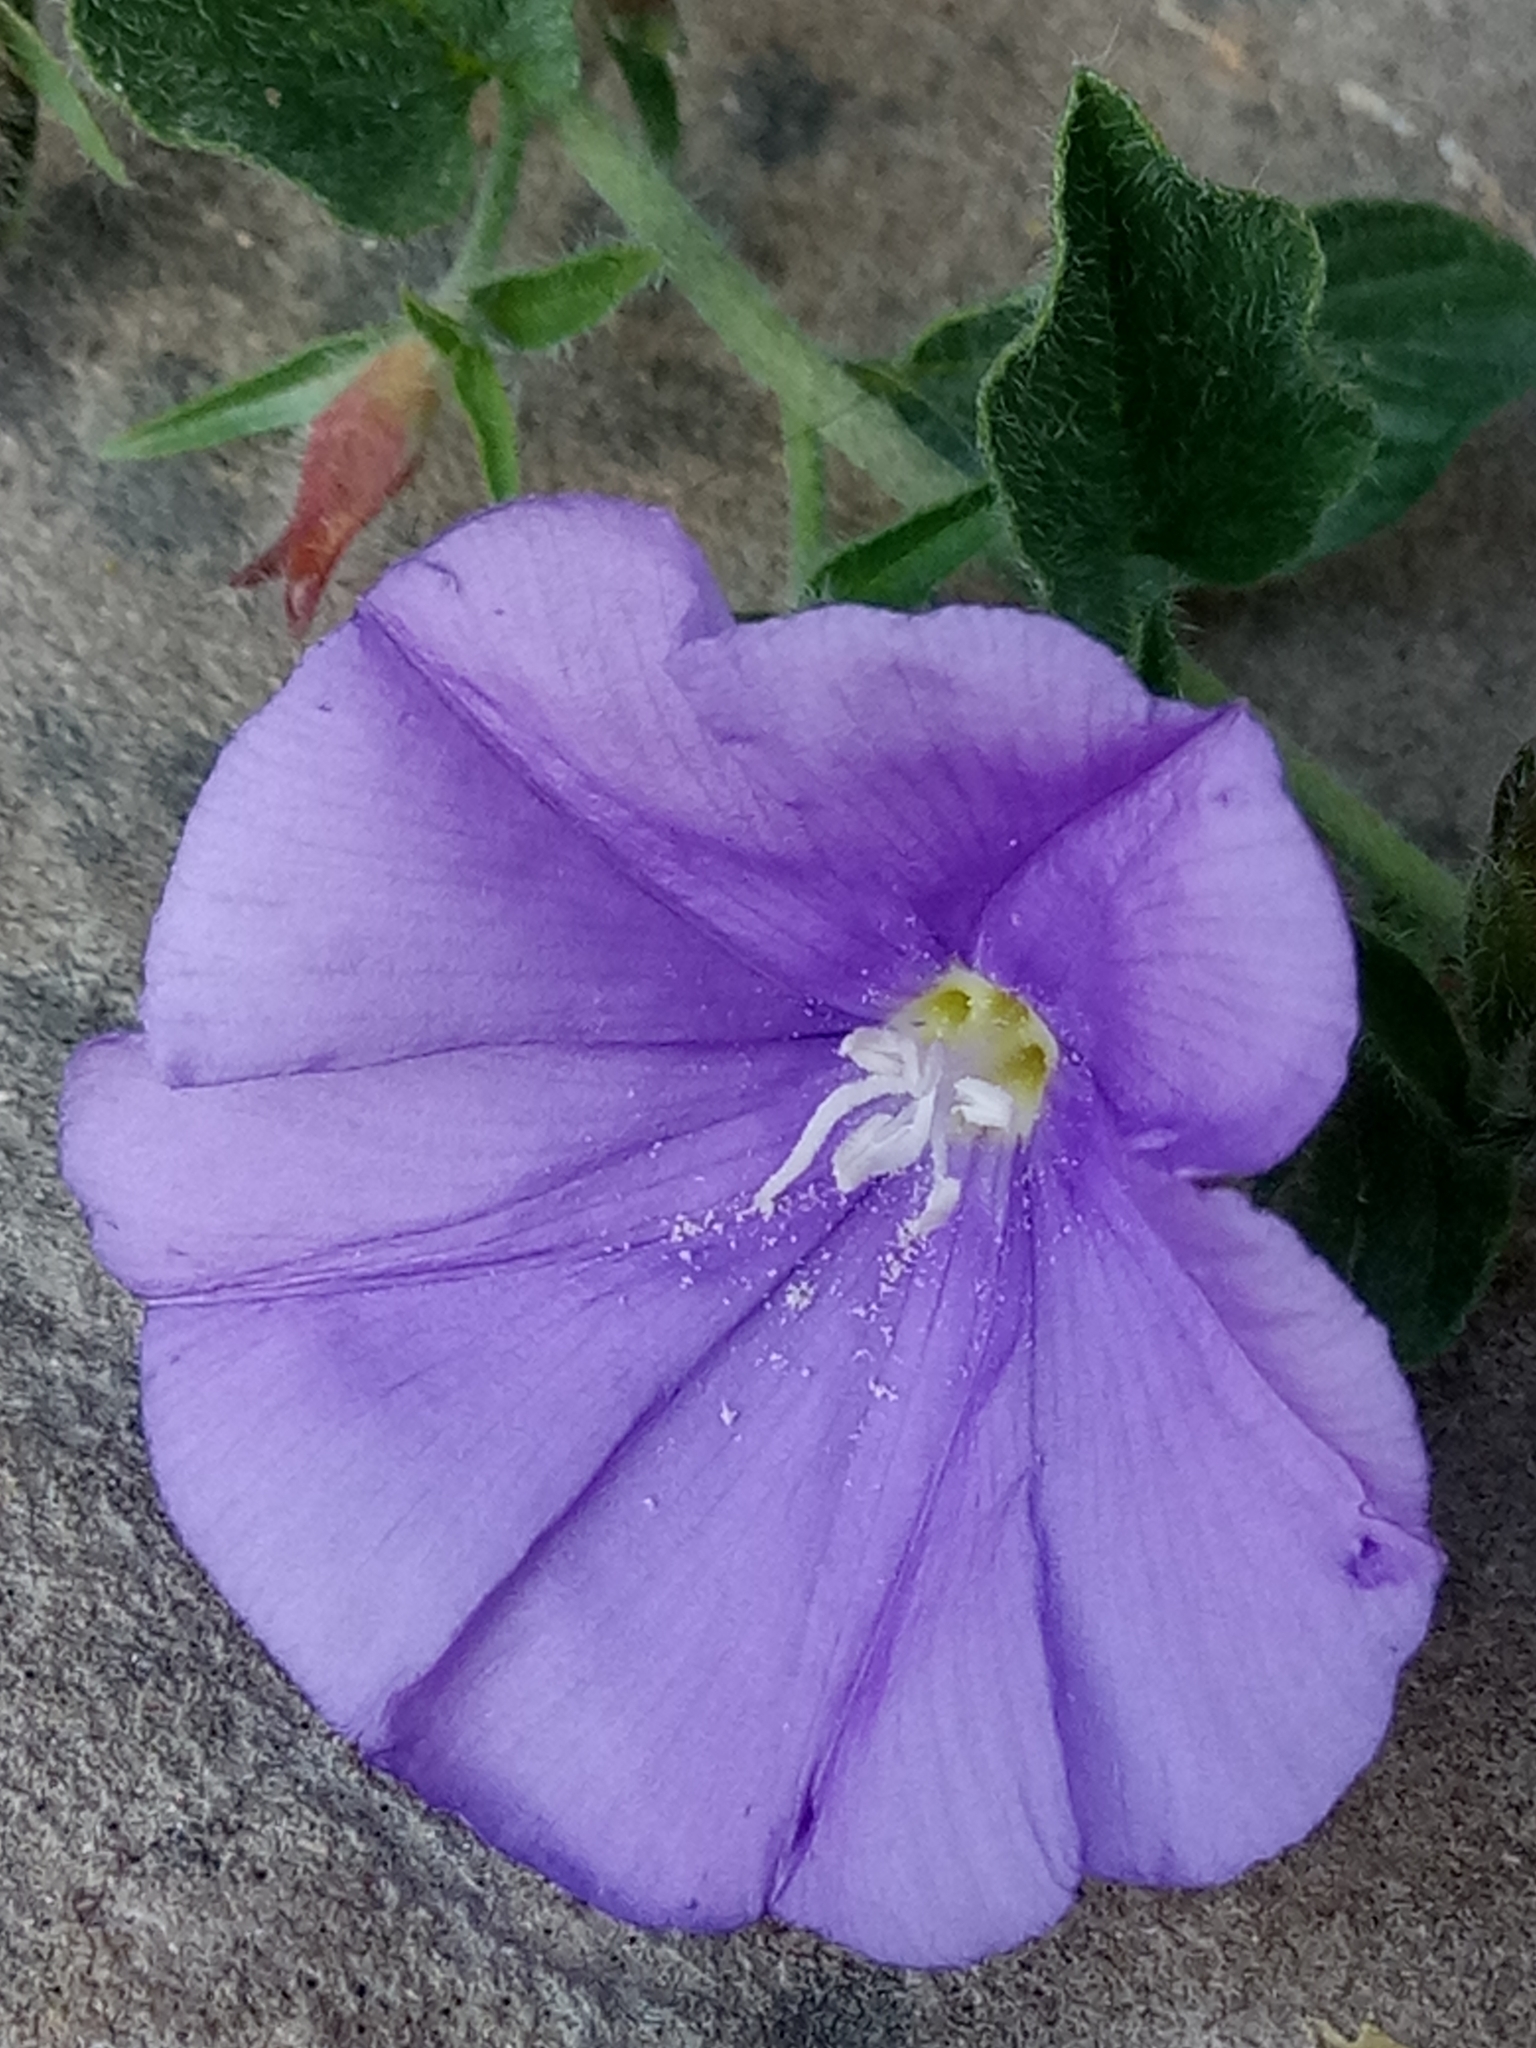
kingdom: Plantae
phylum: Tracheophyta
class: Magnoliopsida
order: Solanales
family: Convolvulaceae
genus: Convolvulus
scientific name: Convolvulus sabatius
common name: Ground blue-convolvulus
